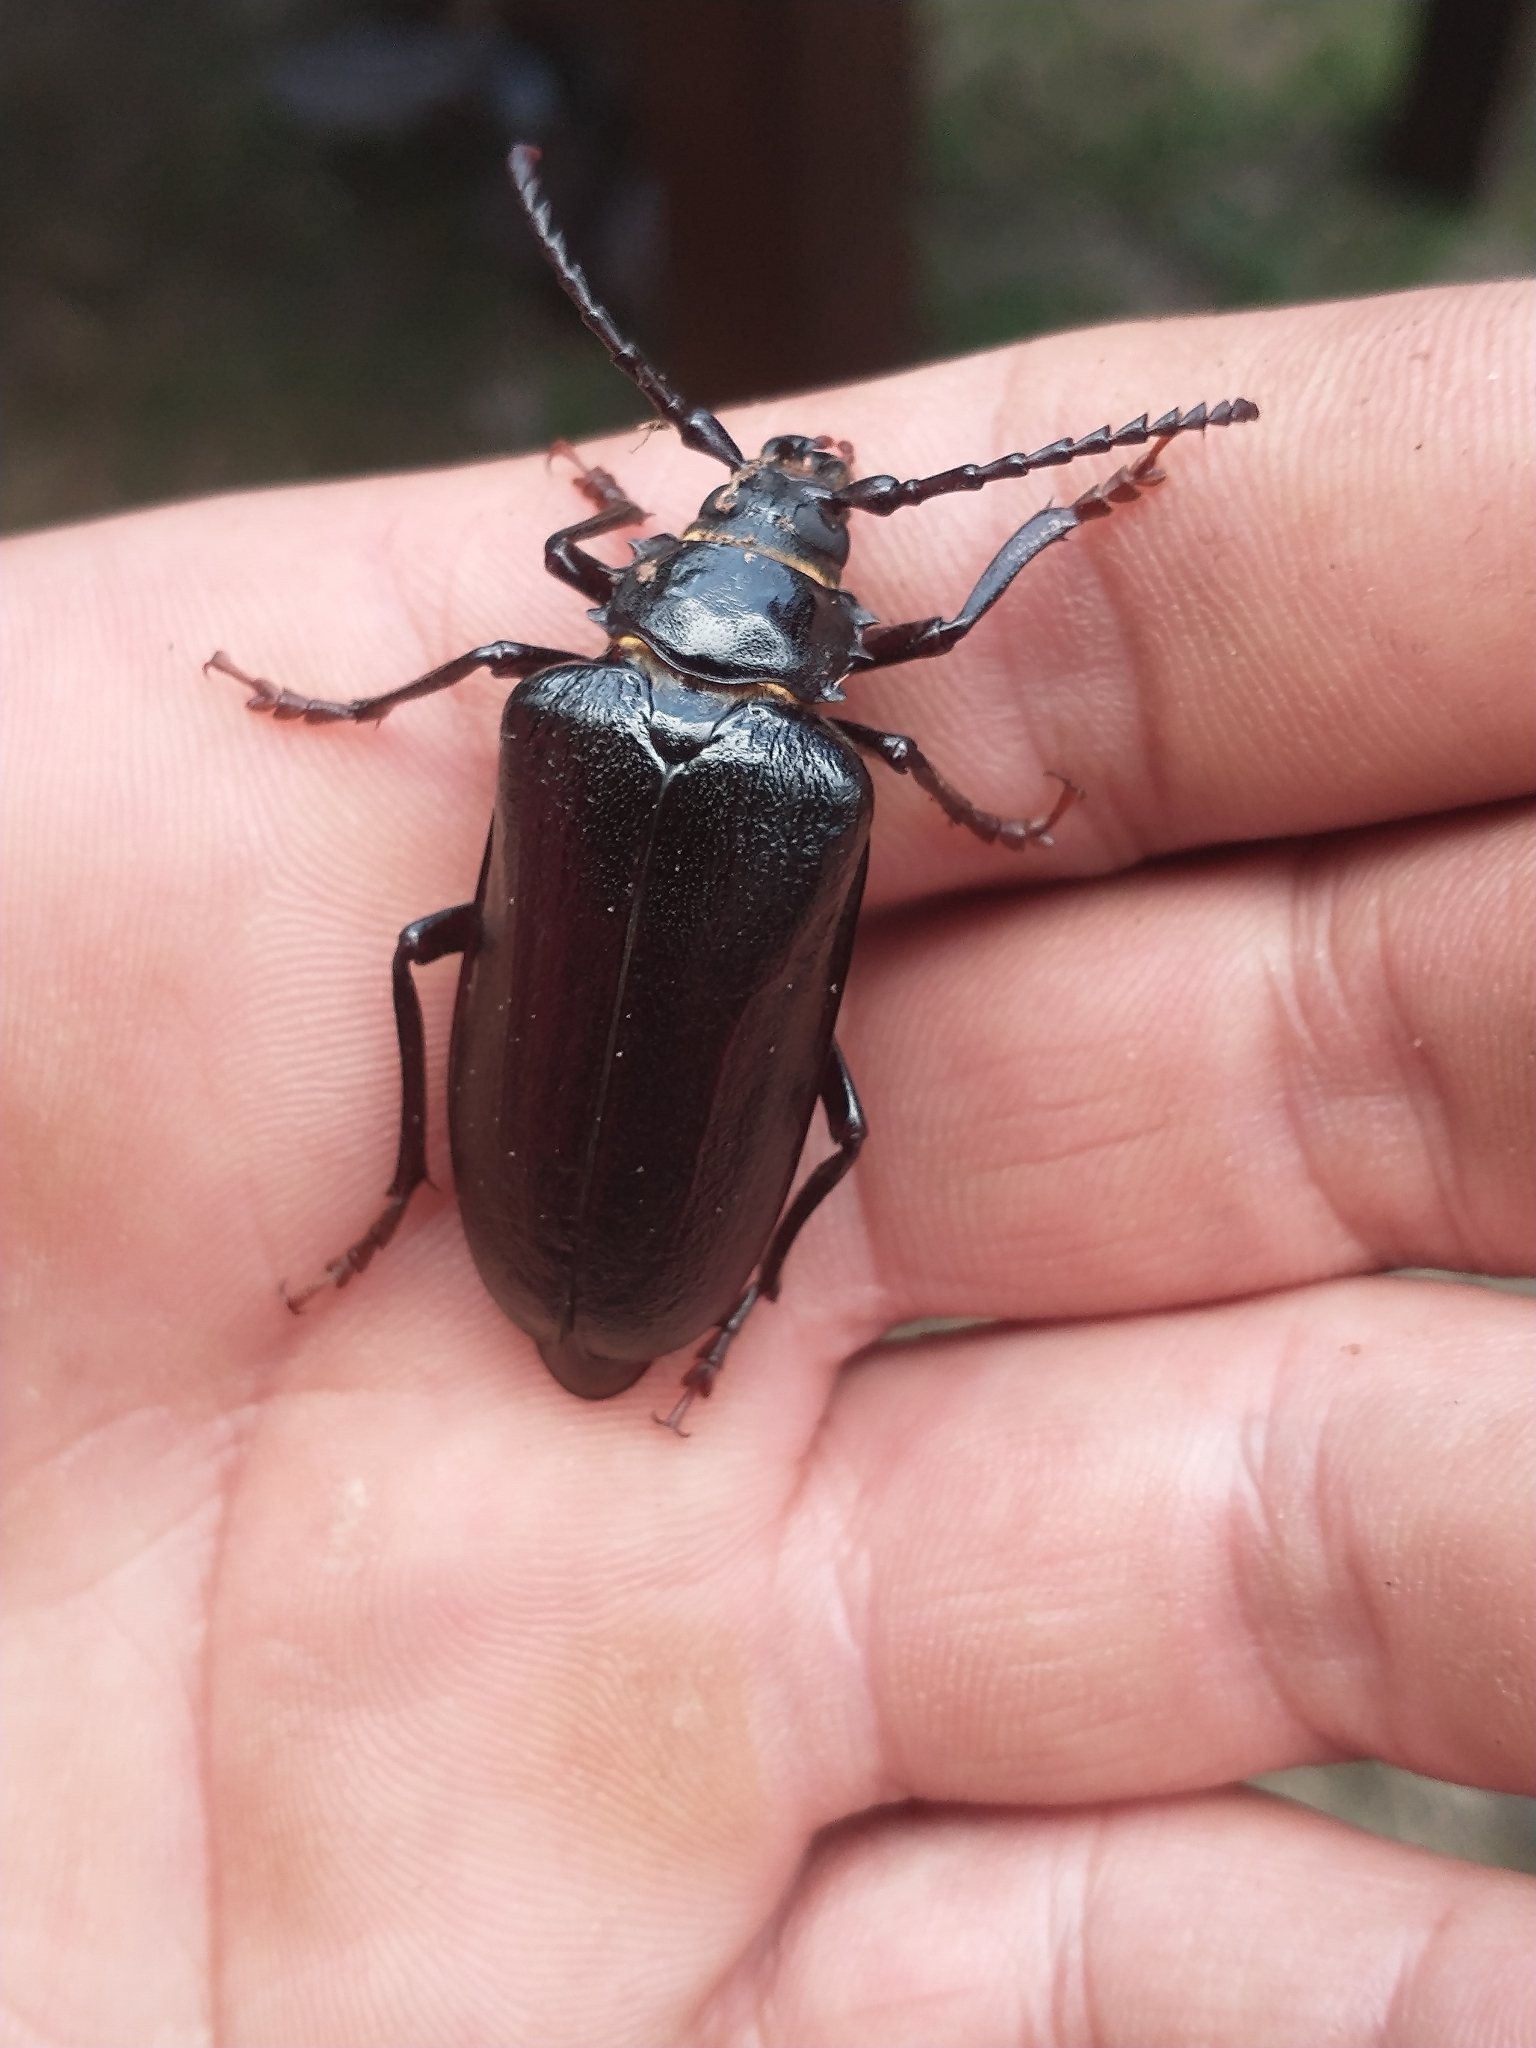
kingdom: Animalia
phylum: Arthropoda
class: Insecta
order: Coleoptera
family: Cerambycidae
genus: Prionus
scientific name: Prionus coriarius
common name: Tanner beetle
